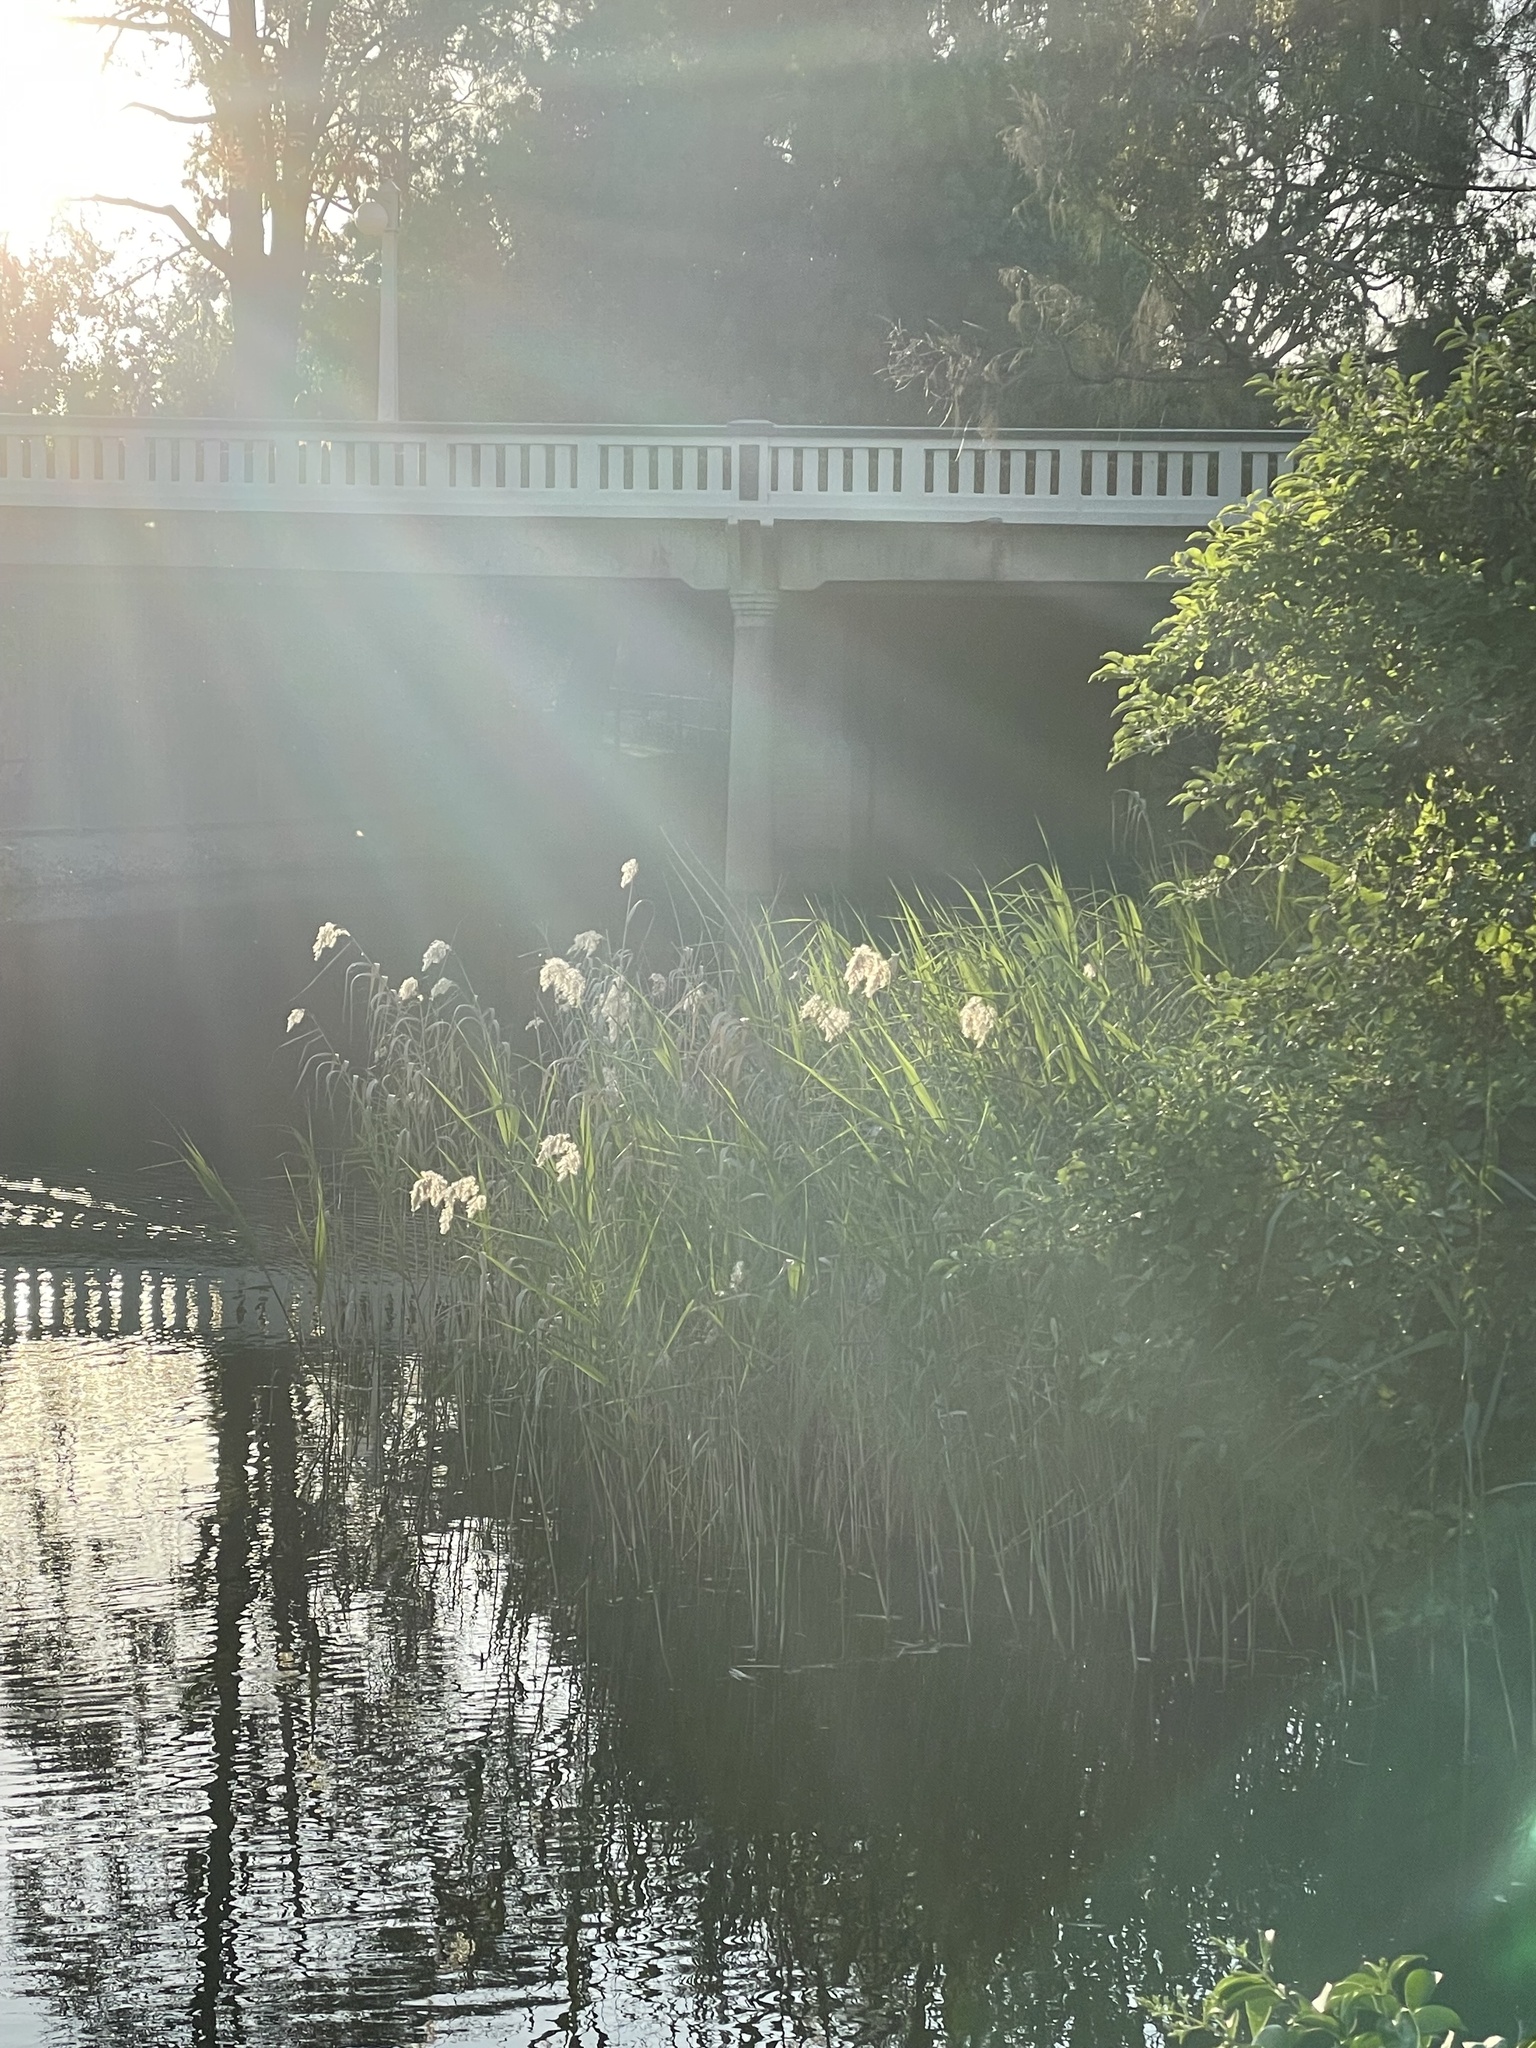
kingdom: Plantae
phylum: Tracheophyta
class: Liliopsida
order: Poales
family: Poaceae
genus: Phragmites
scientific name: Phragmites australis
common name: Common reed
